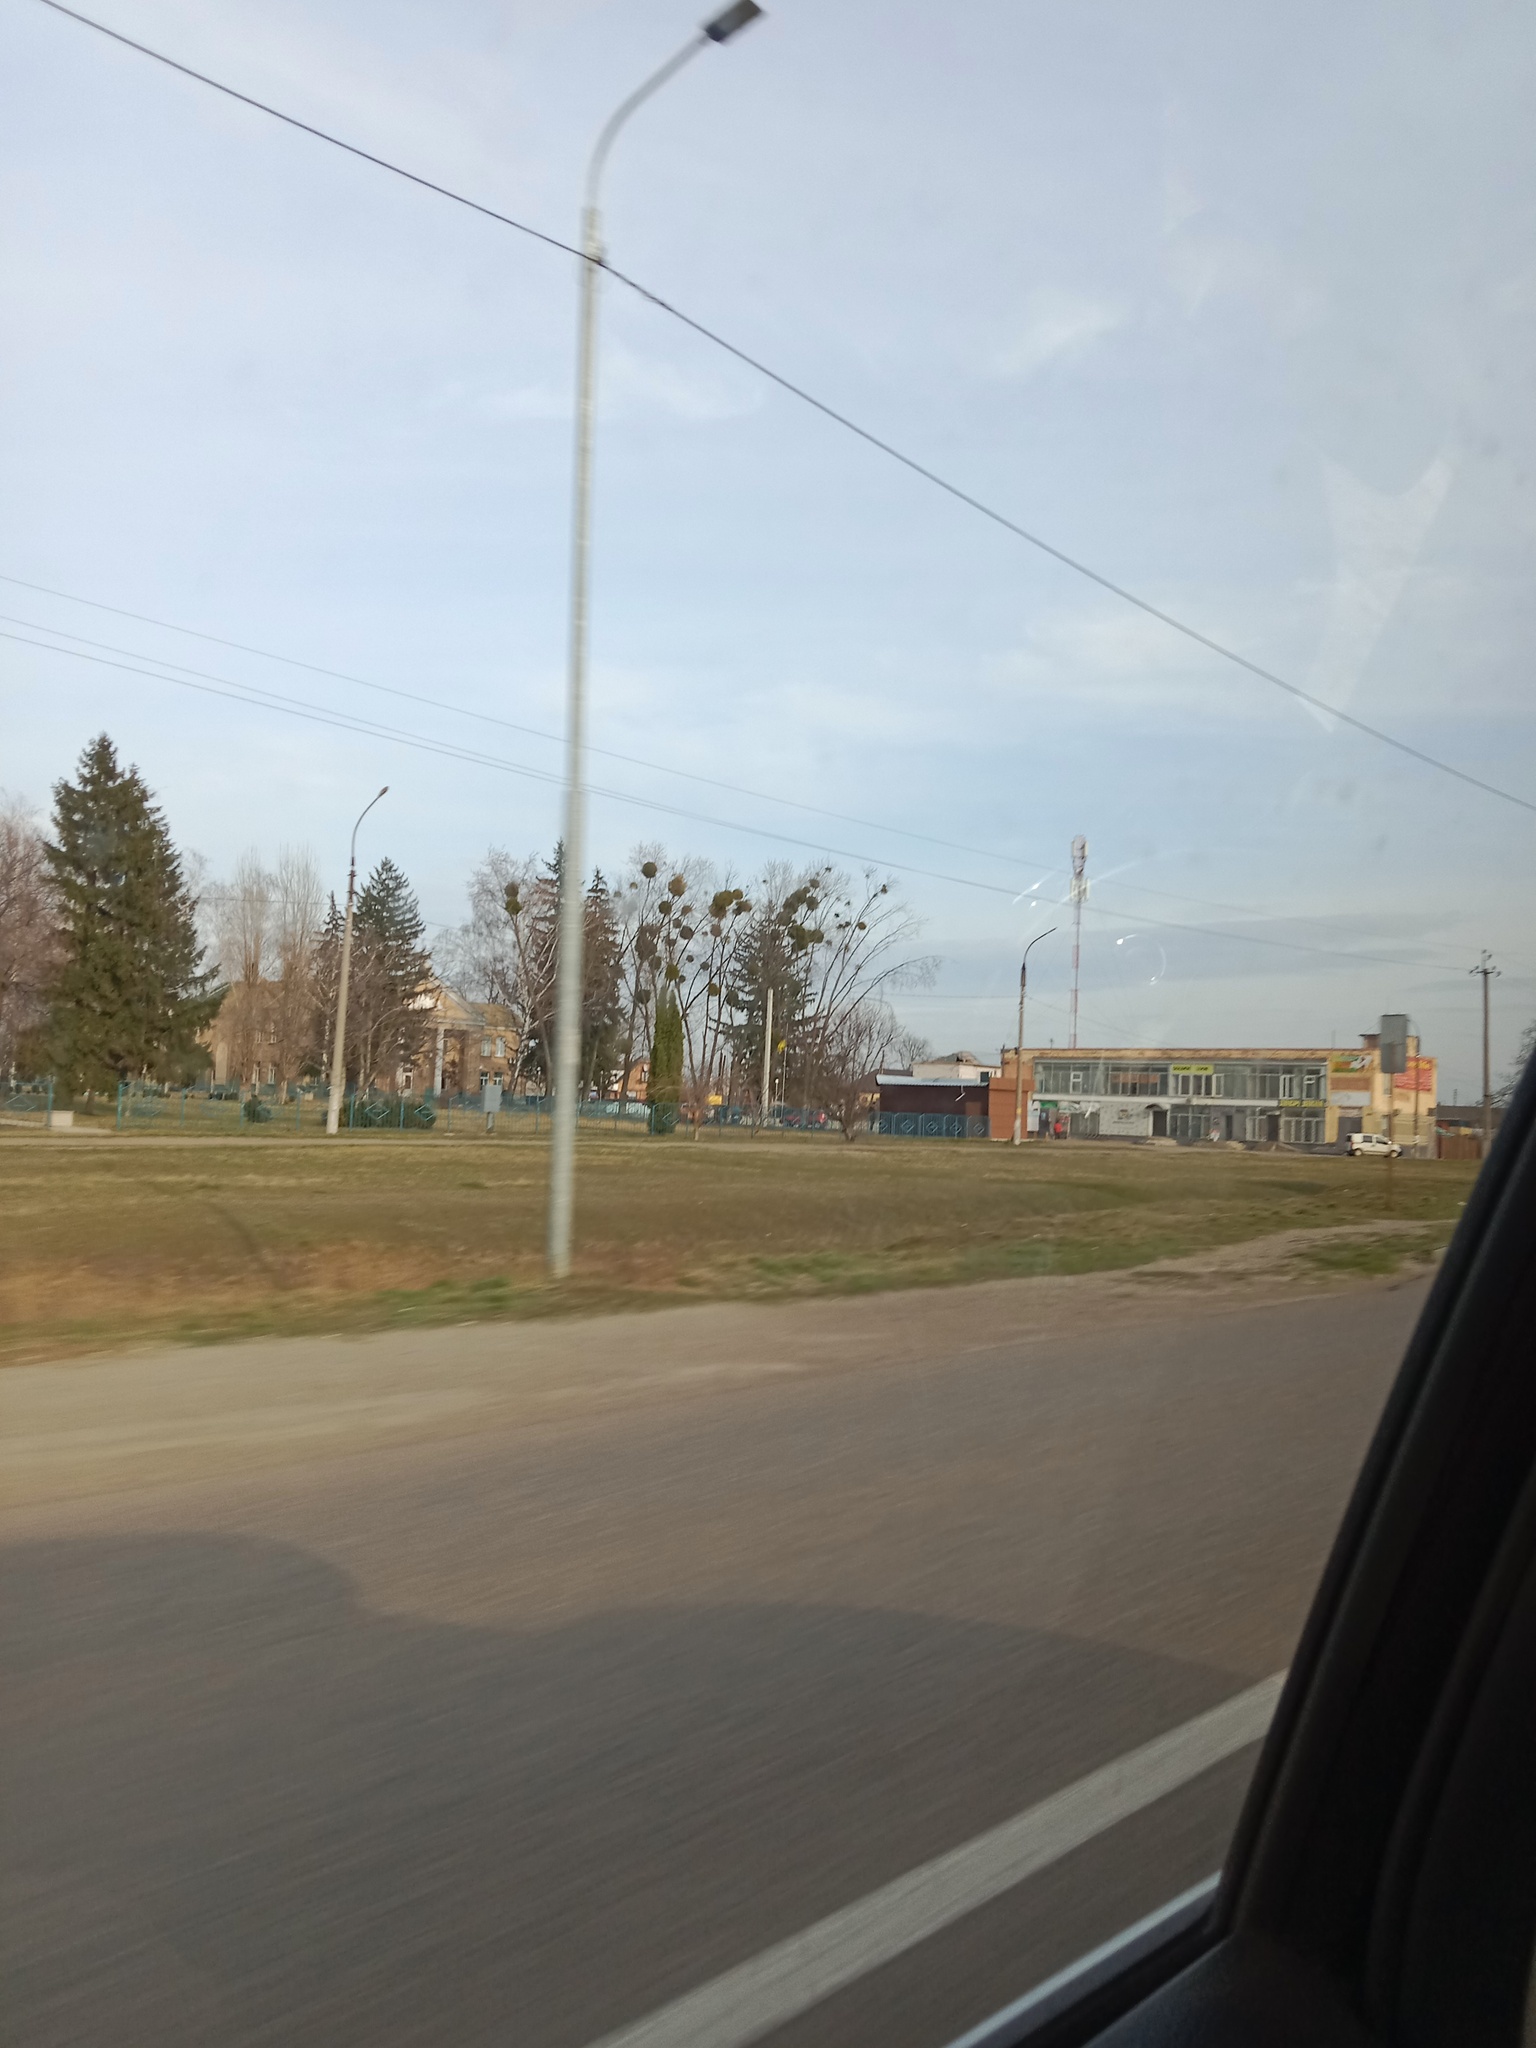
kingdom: Plantae
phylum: Tracheophyta
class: Magnoliopsida
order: Santalales
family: Viscaceae
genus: Viscum
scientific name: Viscum album
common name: Mistletoe
